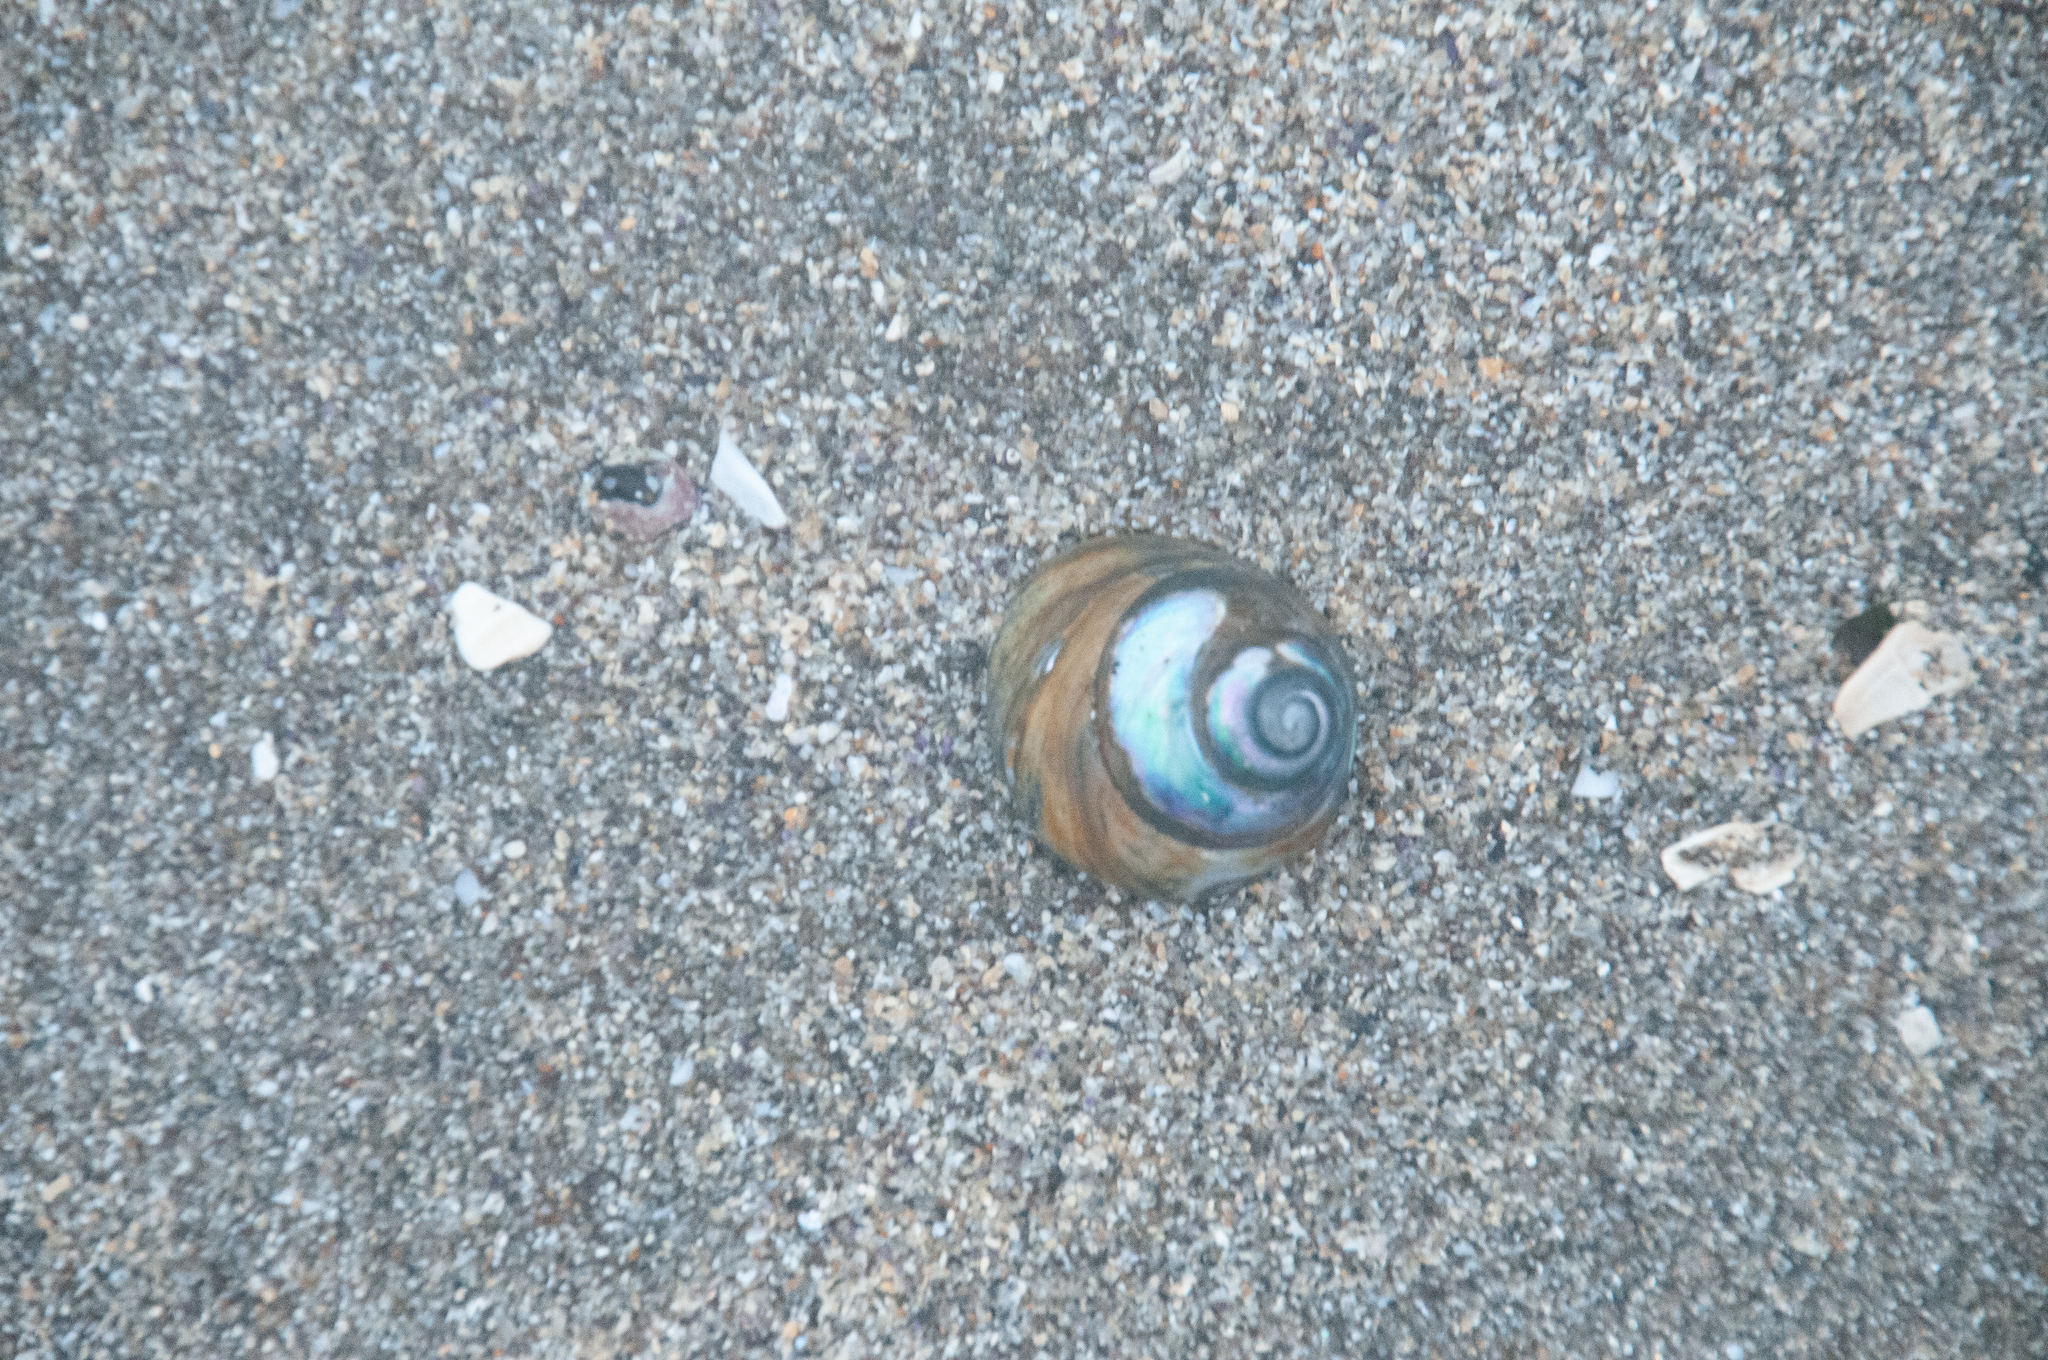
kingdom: Animalia
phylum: Mollusca
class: Gastropoda
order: Trochida
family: Tegulidae
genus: Tegula
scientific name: Tegula brunnea
